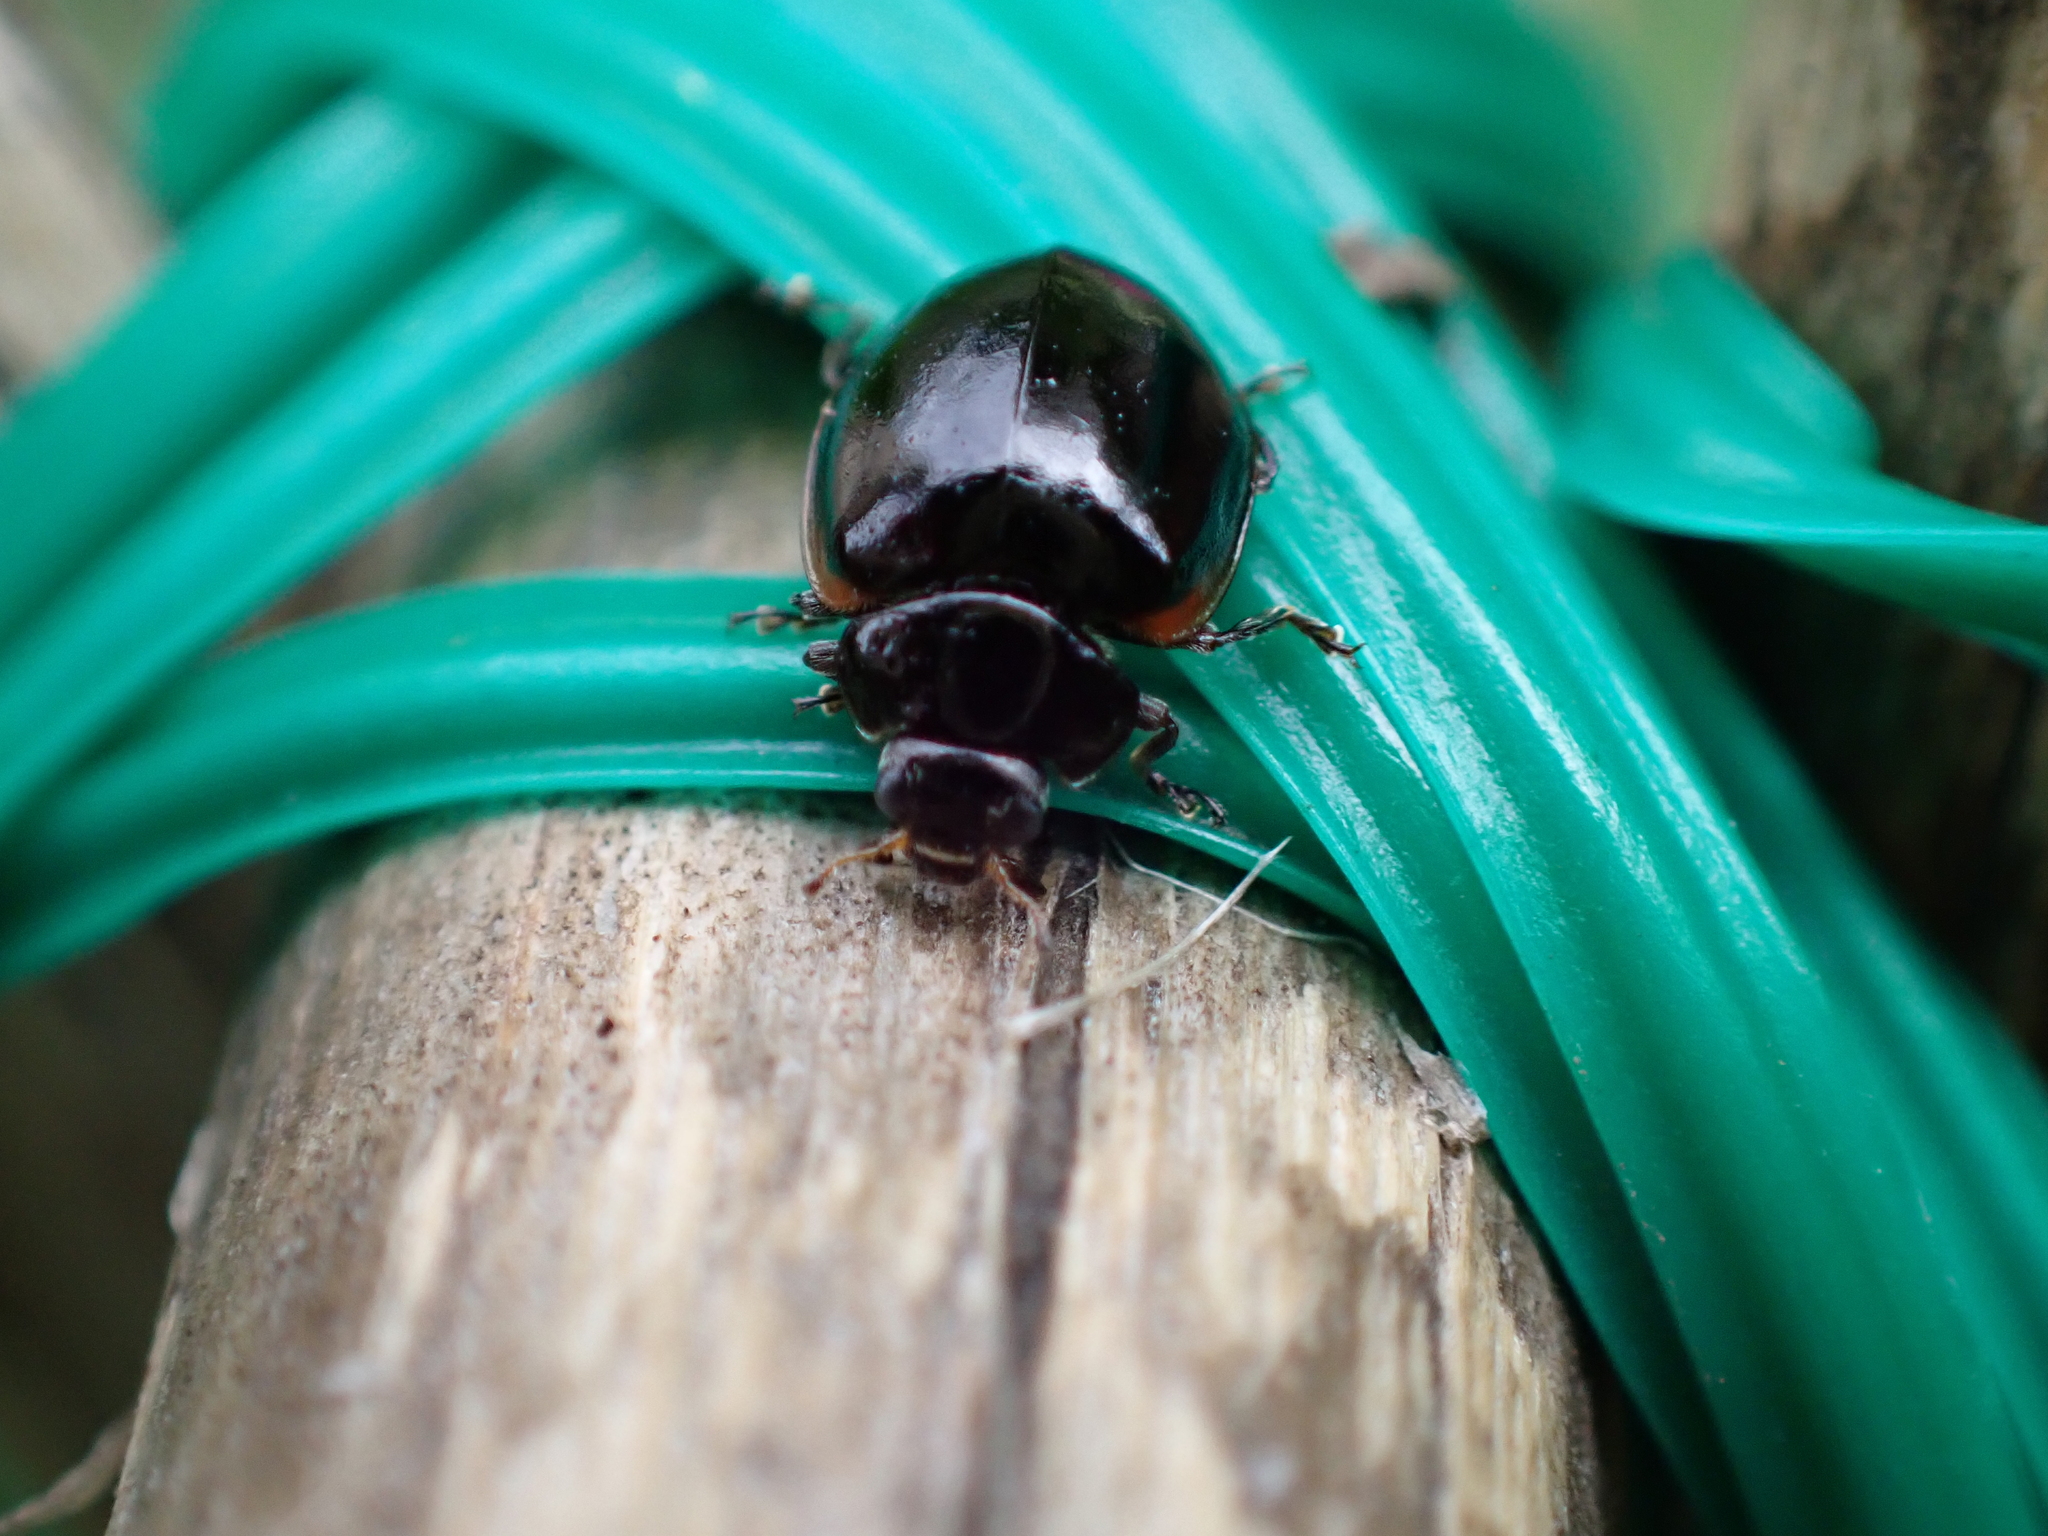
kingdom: Animalia
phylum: Arthropoda
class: Insecta
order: Coleoptera
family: Coccinellidae
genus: Adalia
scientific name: Adalia bipunctata
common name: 2-spot ladybird
